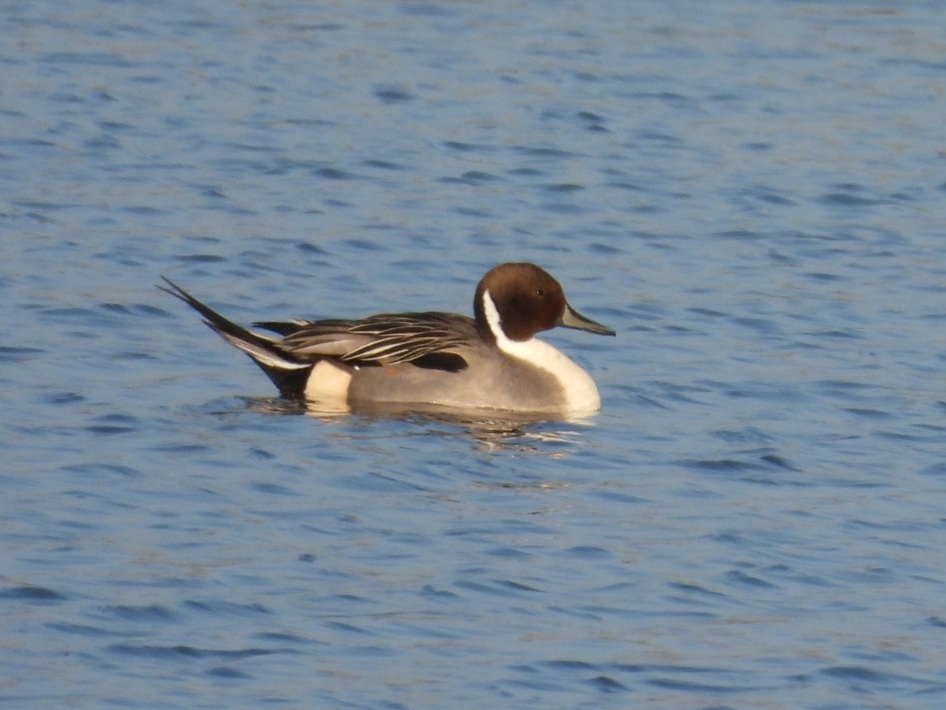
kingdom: Animalia
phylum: Chordata
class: Aves
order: Anseriformes
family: Anatidae
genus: Anas
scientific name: Anas acuta
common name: Northern pintail
